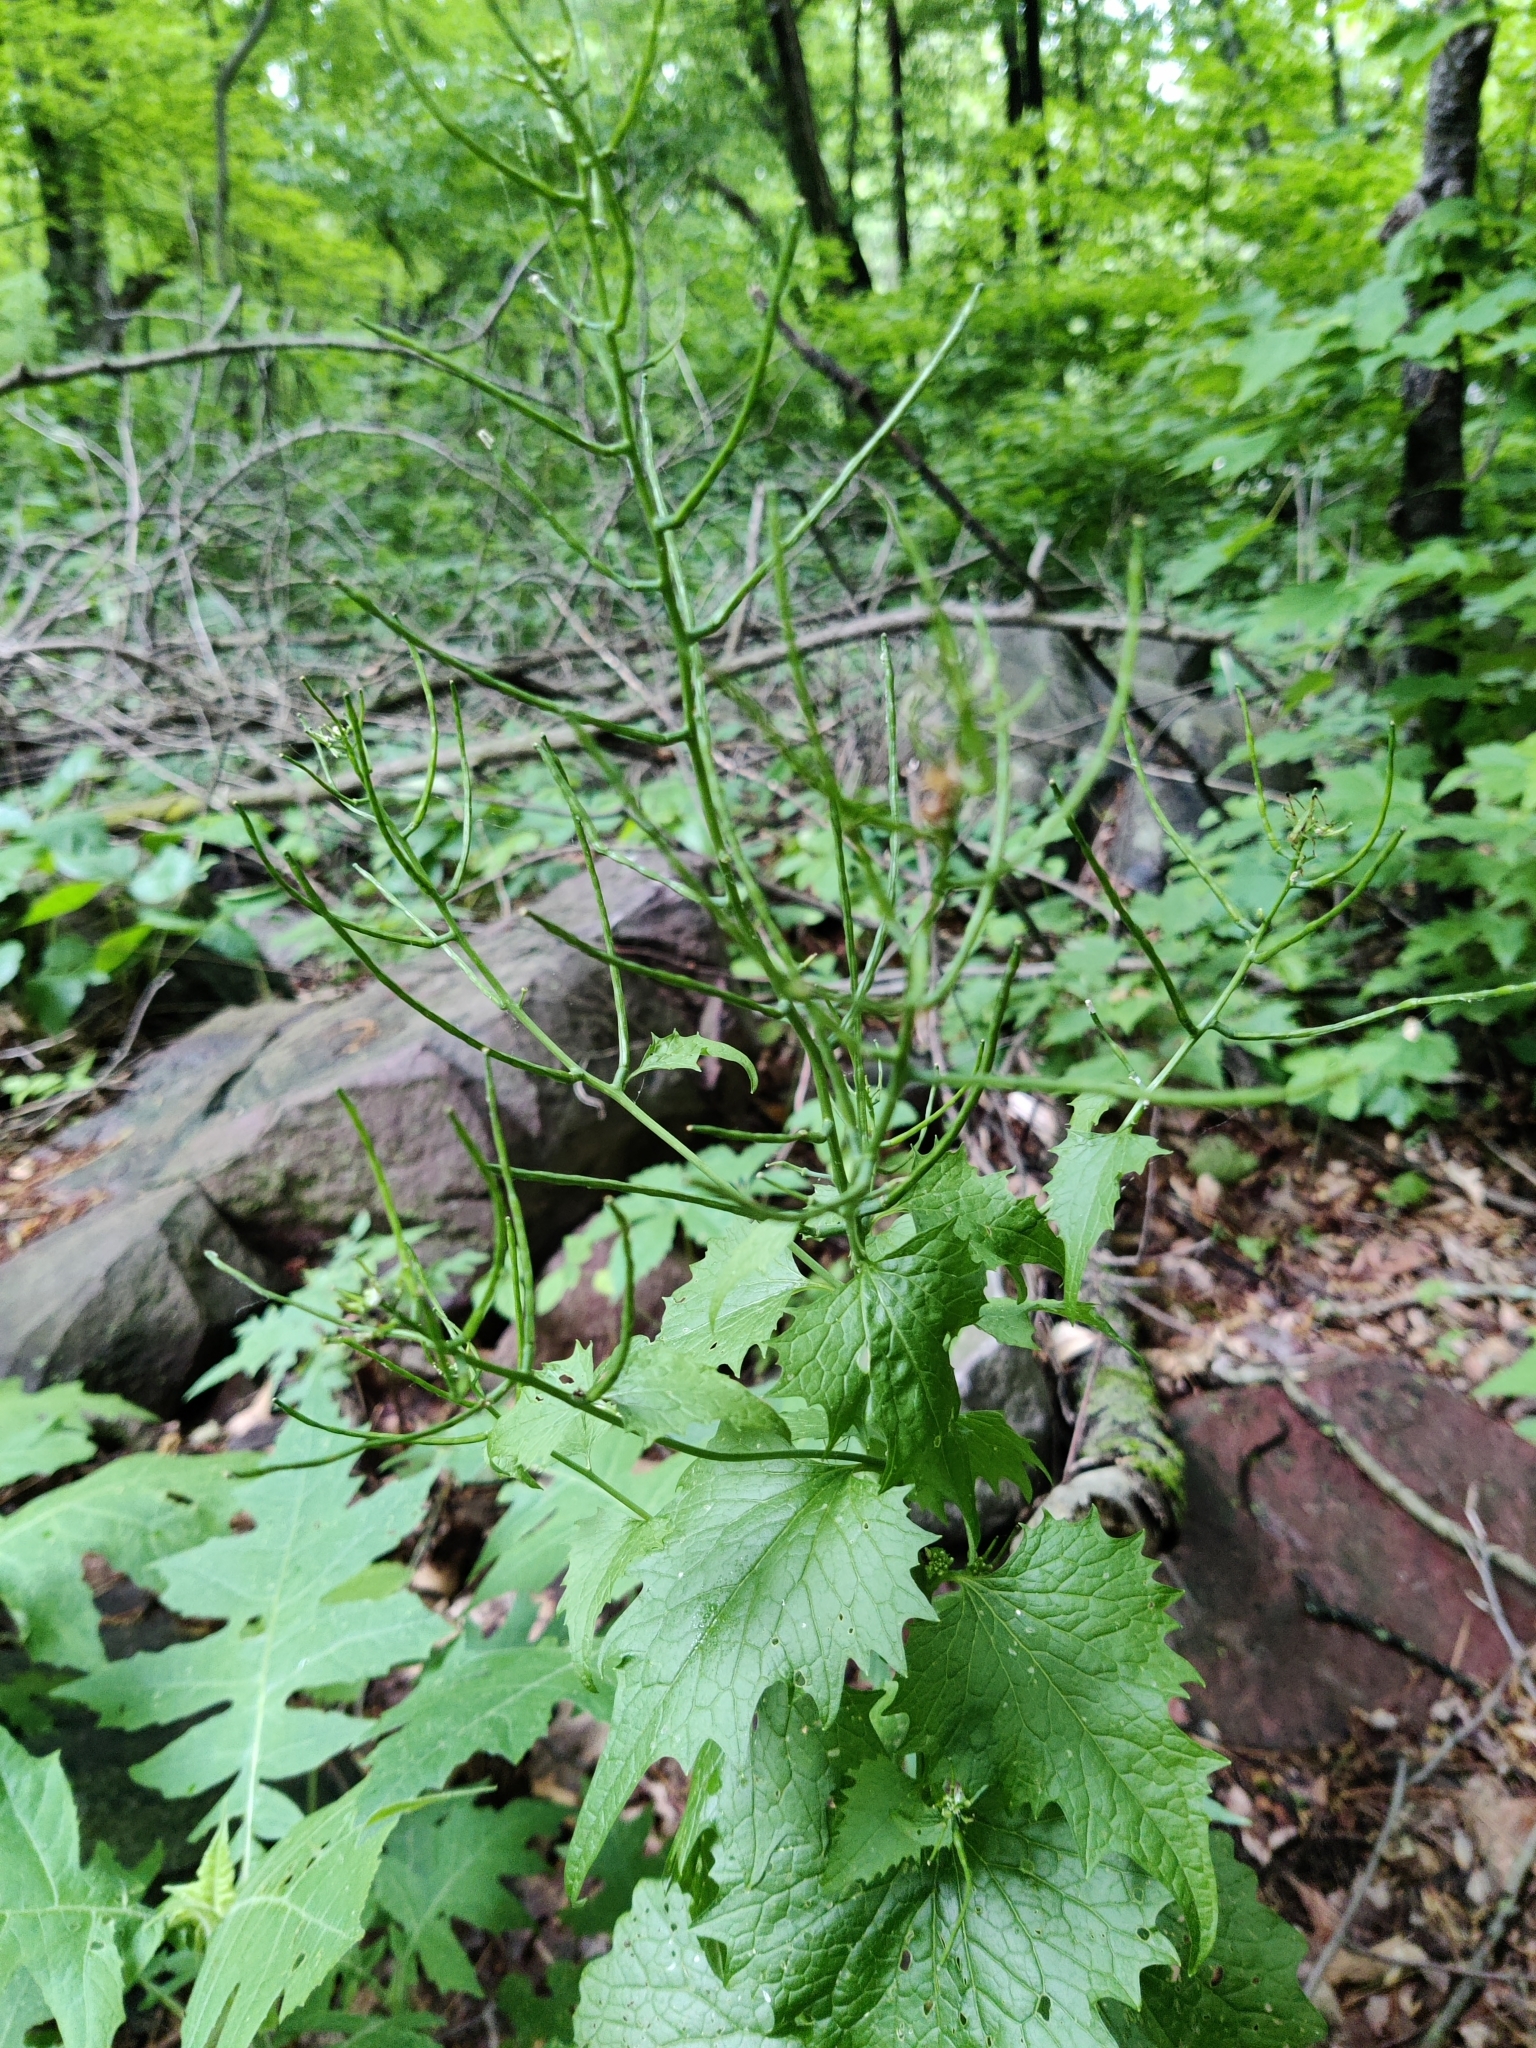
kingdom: Plantae
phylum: Tracheophyta
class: Magnoliopsida
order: Brassicales
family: Brassicaceae
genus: Alliaria
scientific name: Alliaria petiolata
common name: Garlic mustard
